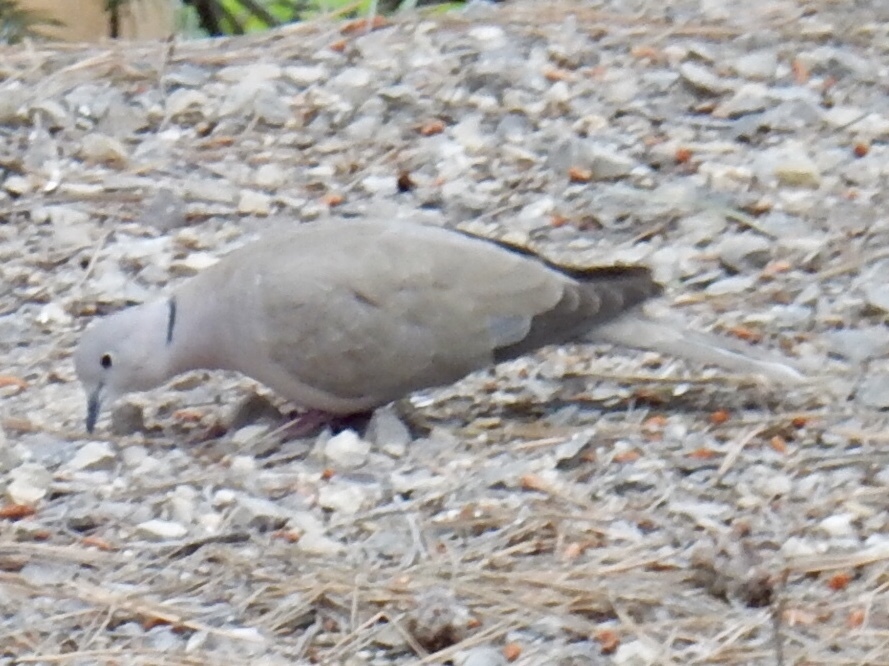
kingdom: Animalia
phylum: Chordata
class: Aves
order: Columbiformes
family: Columbidae
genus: Streptopelia
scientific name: Streptopelia decaocto
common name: Eurasian collared dove
